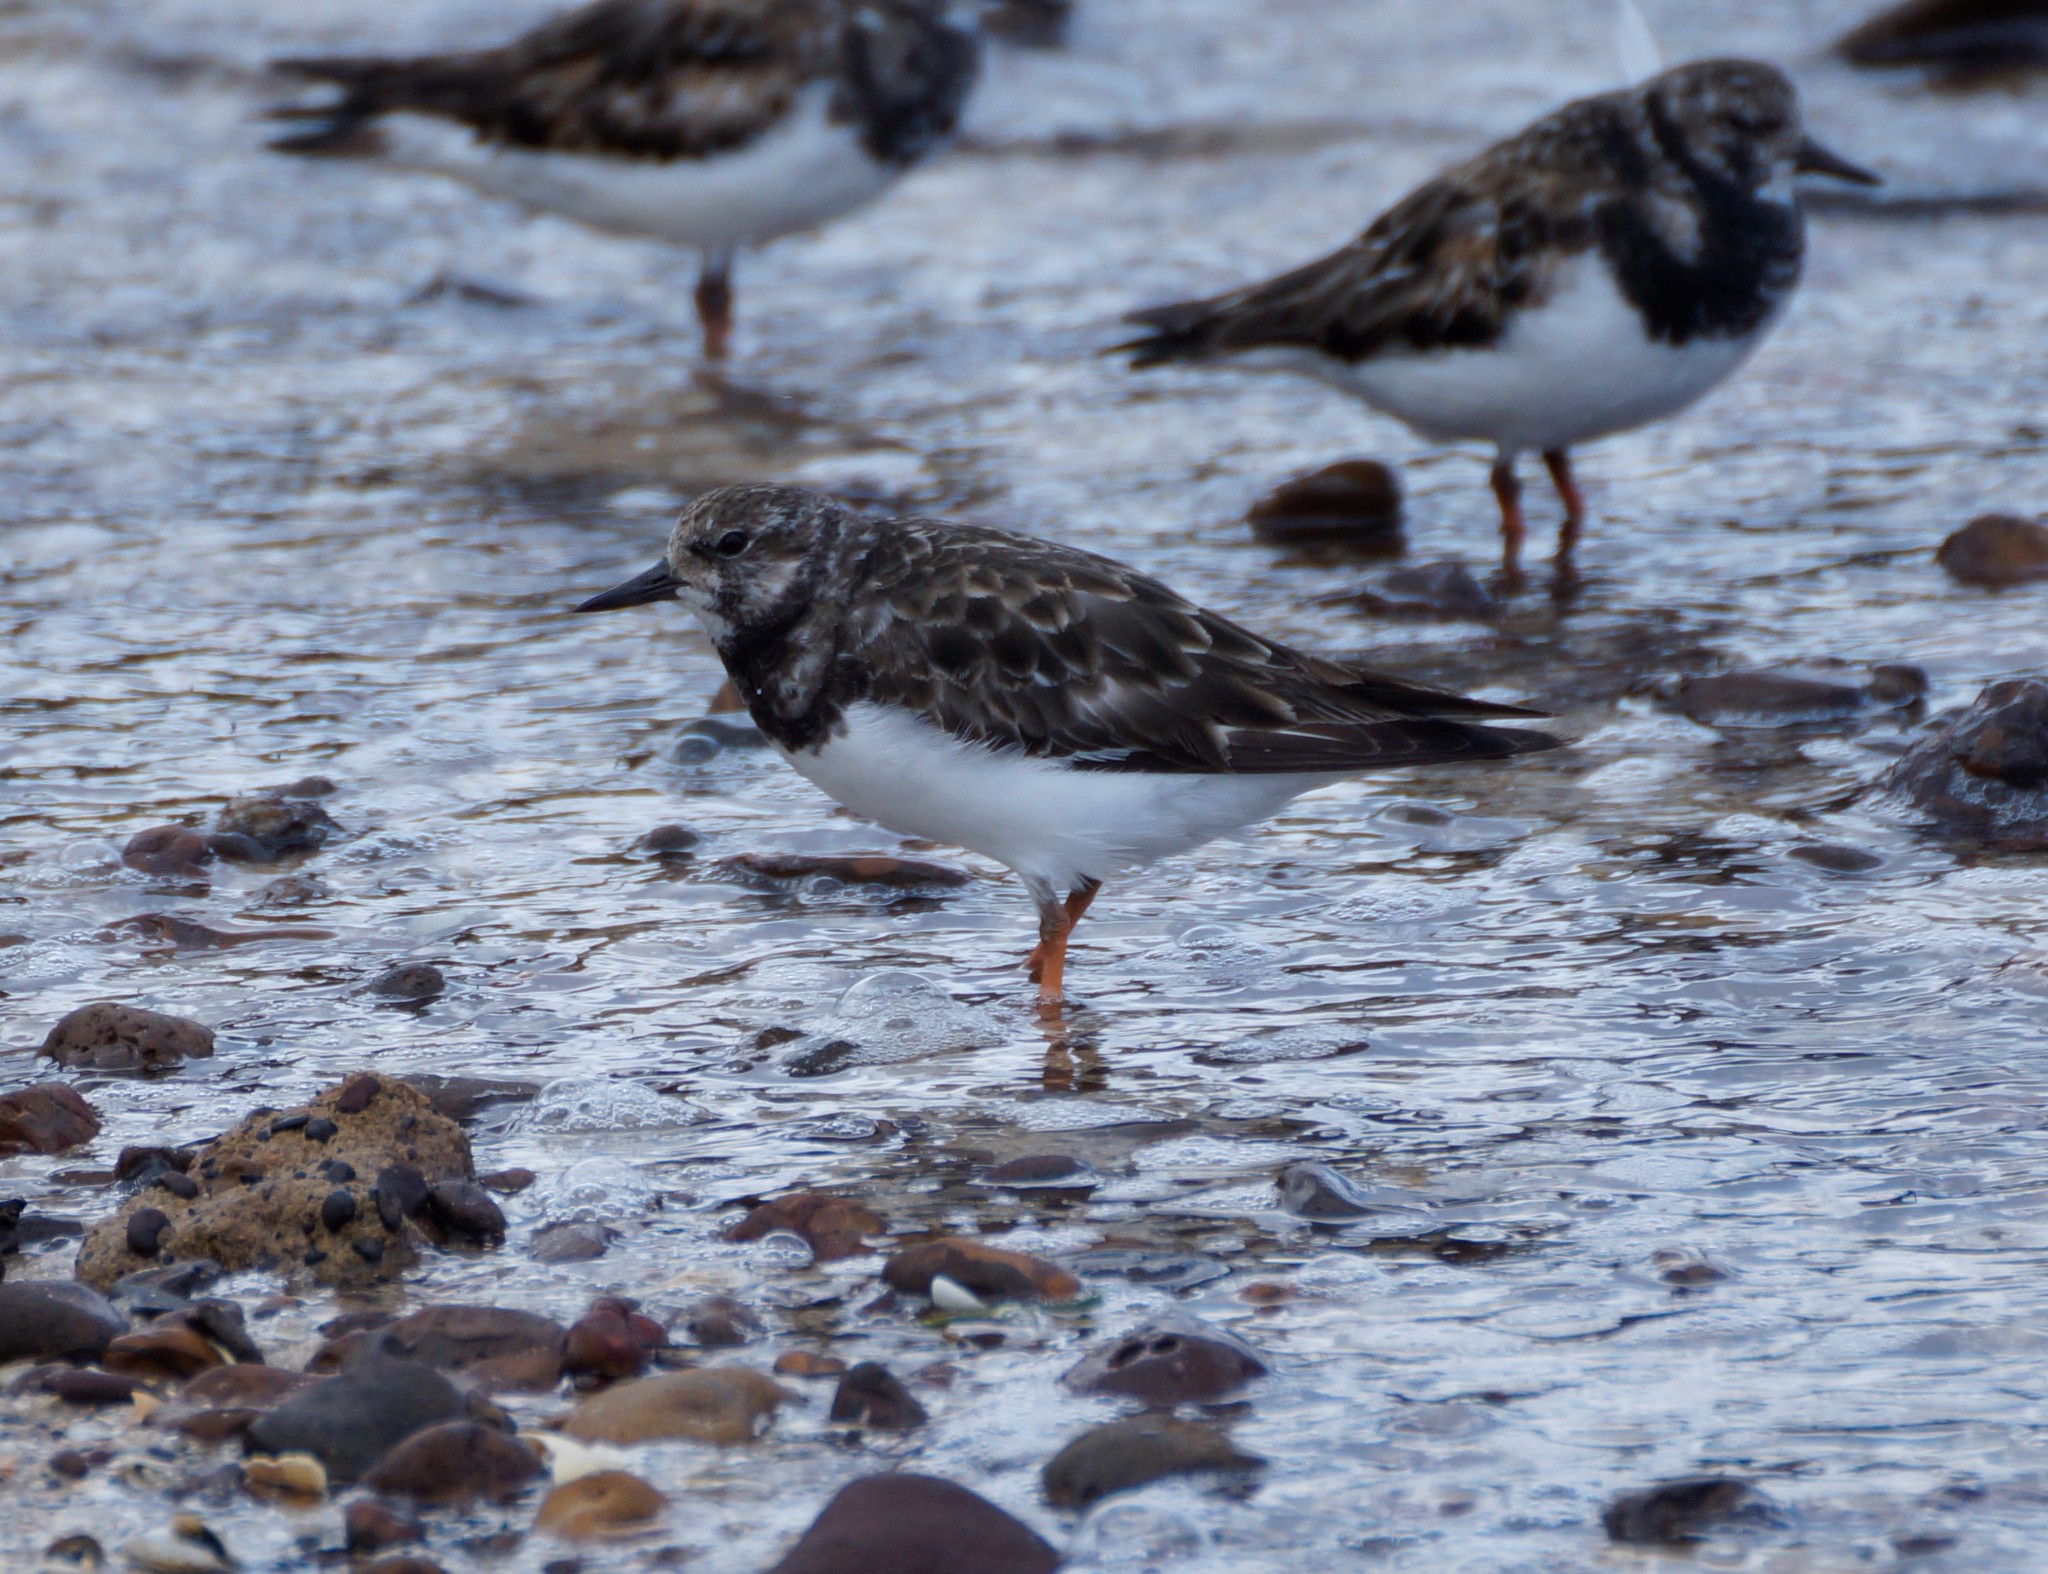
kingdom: Animalia
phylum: Chordata
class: Aves
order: Charadriiformes
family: Scolopacidae
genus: Arenaria
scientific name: Arenaria interpres
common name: Ruddy turnstone
